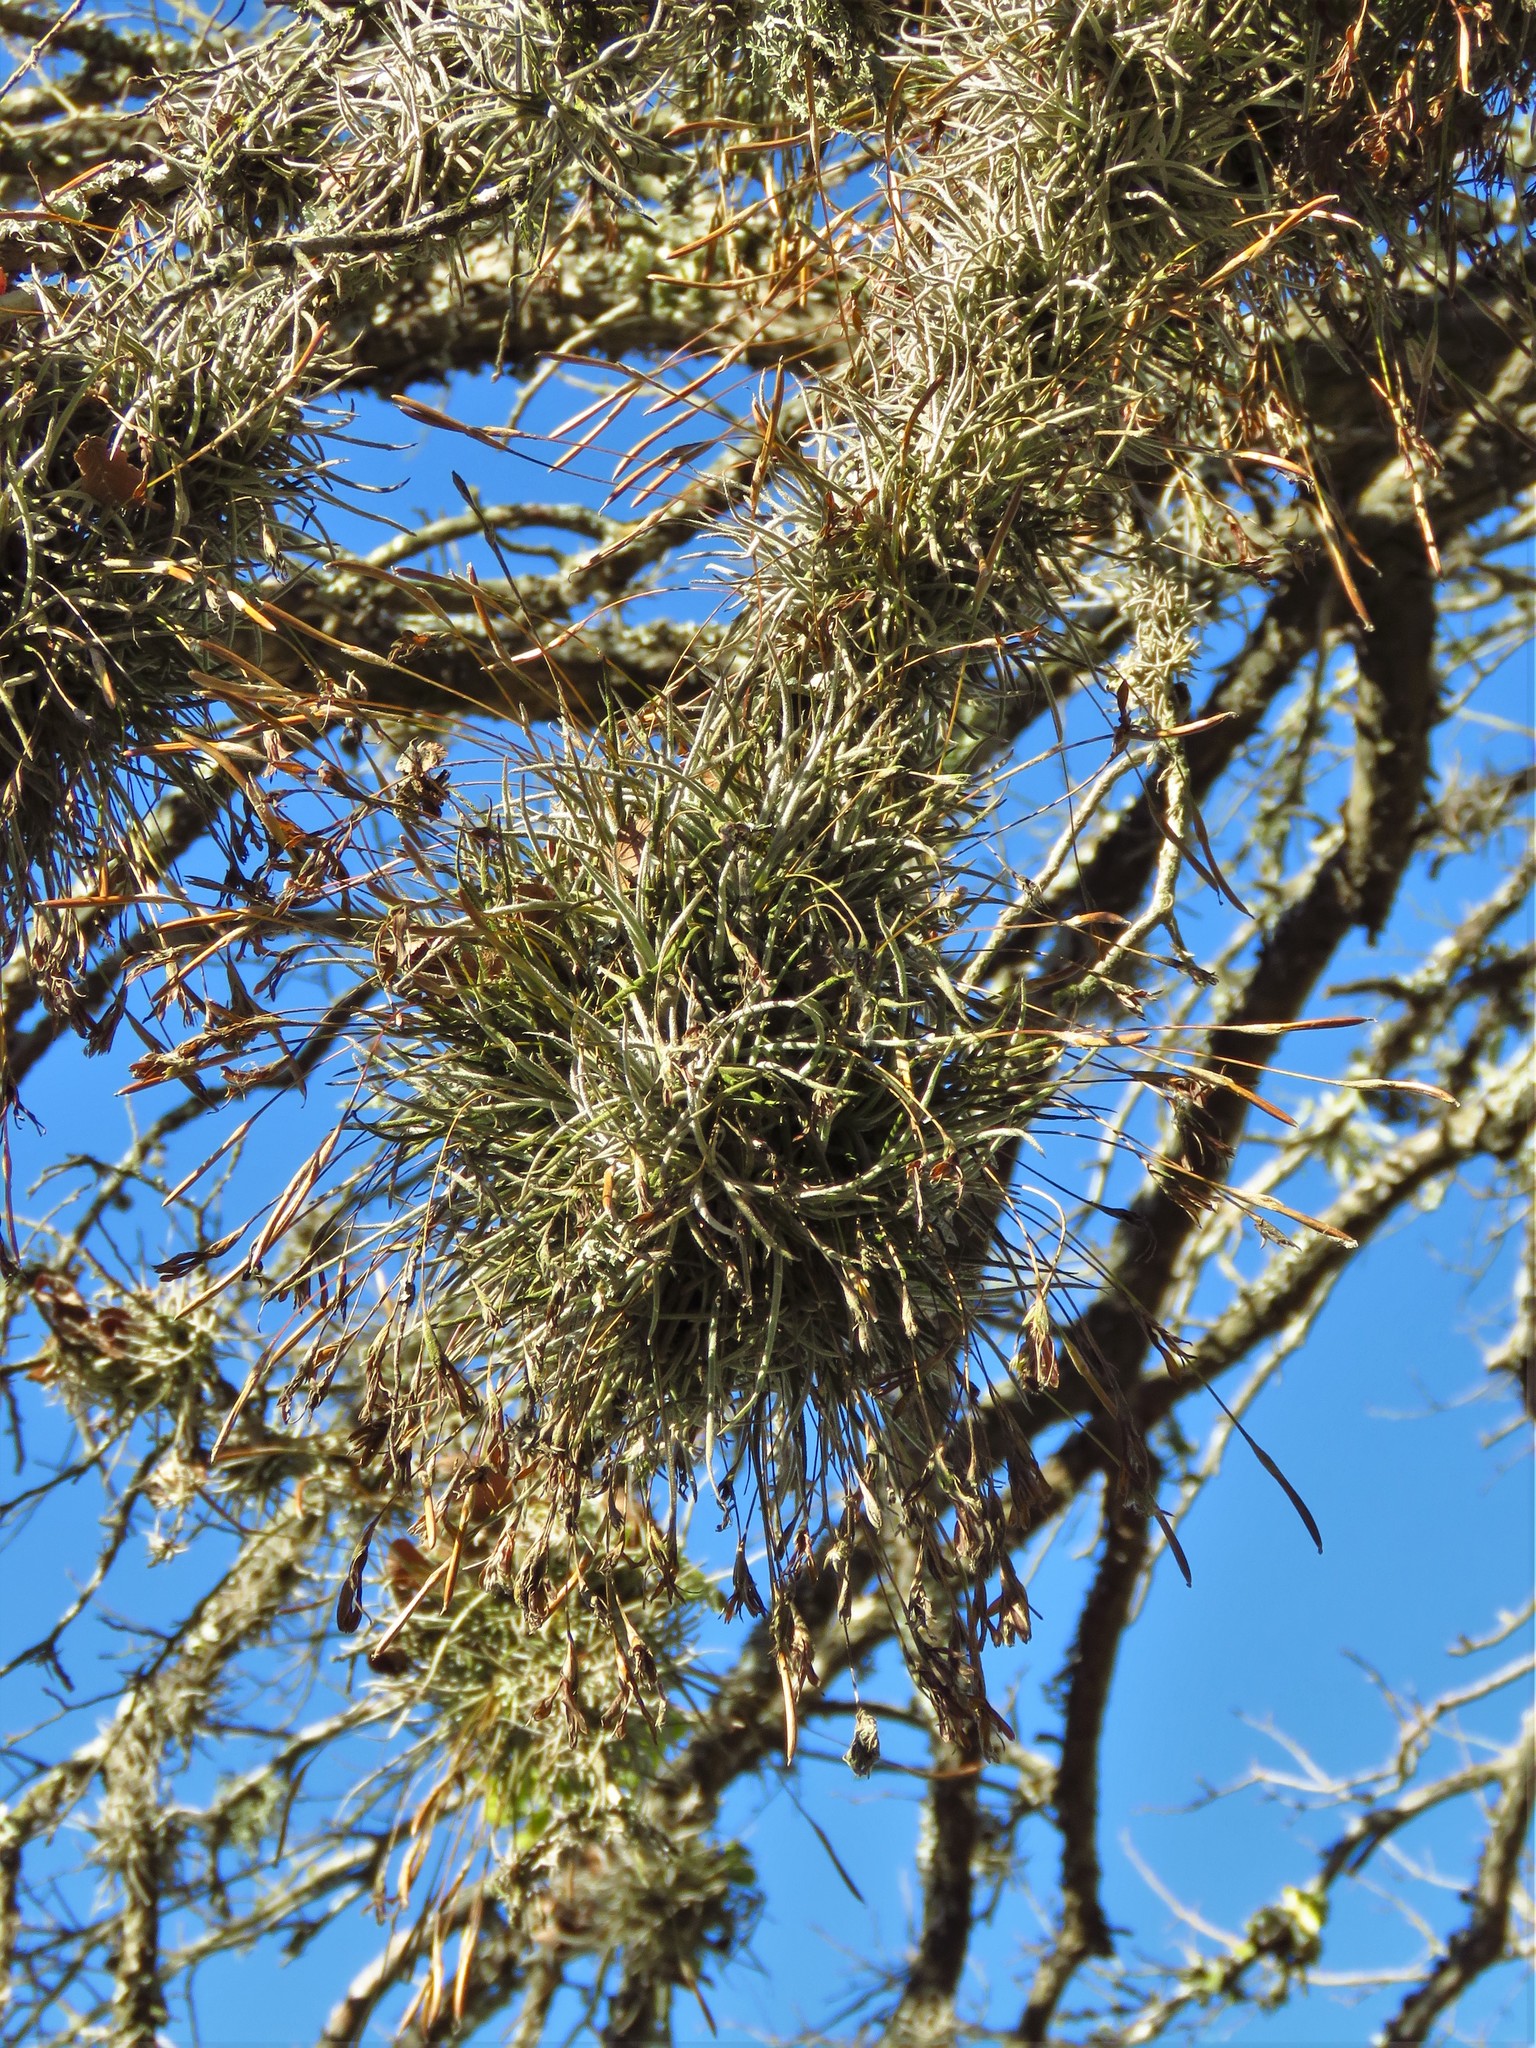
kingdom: Plantae
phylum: Tracheophyta
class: Liliopsida
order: Poales
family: Bromeliaceae
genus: Tillandsia
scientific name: Tillandsia recurvata
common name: Small ballmoss
